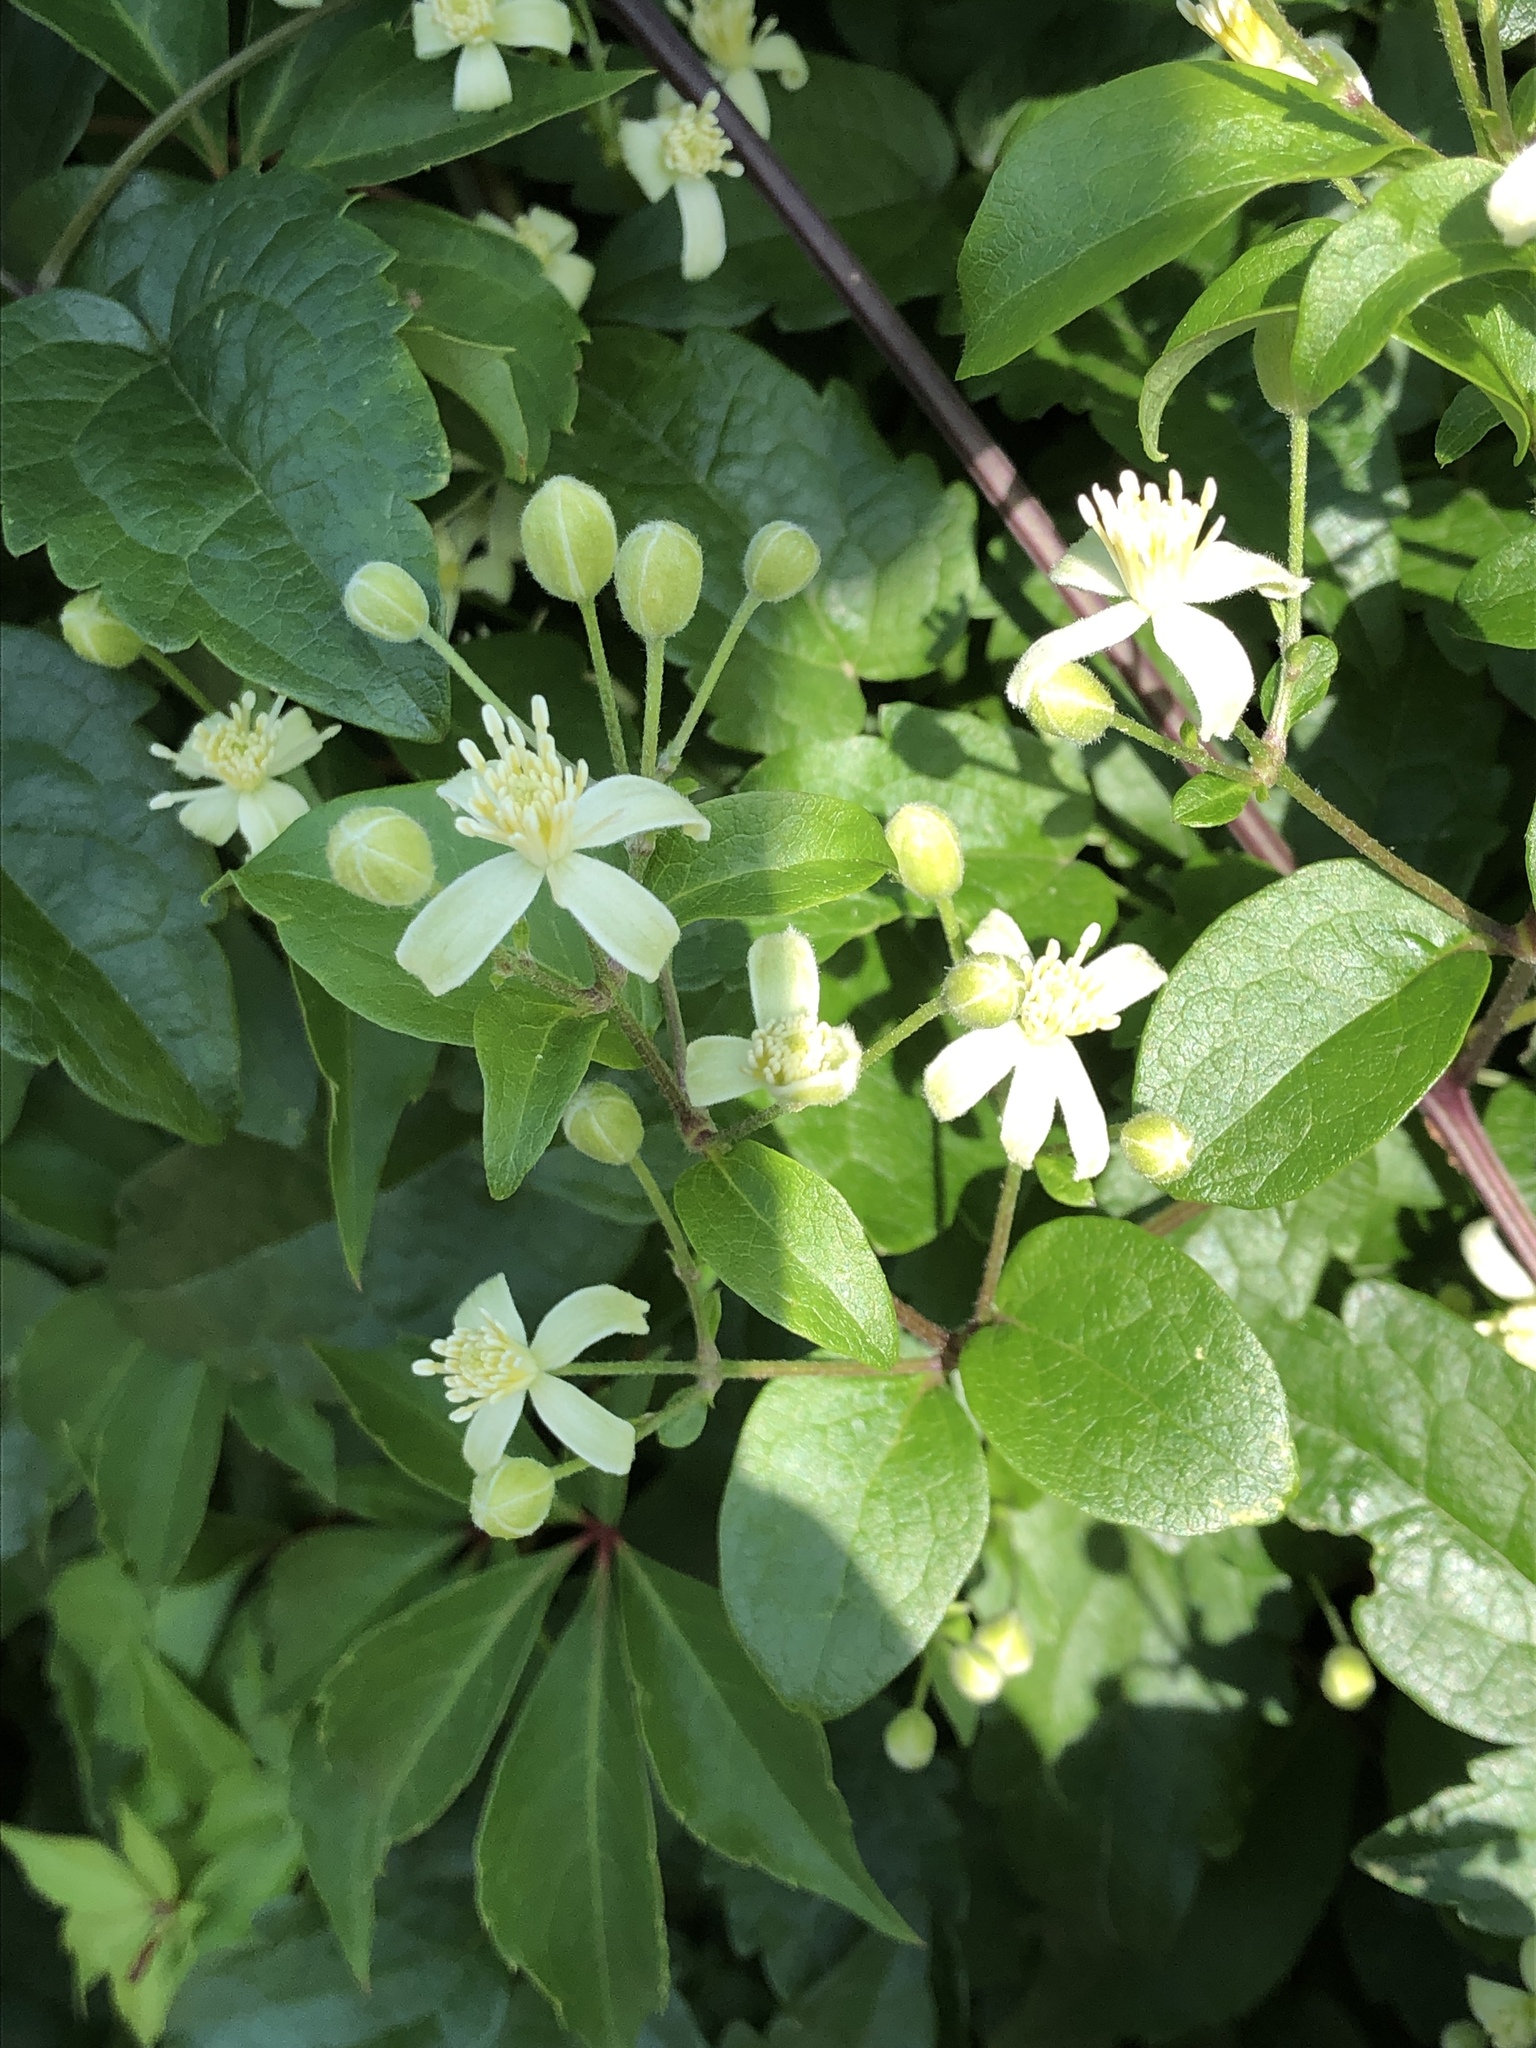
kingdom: Plantae
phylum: Tracheophyta
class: Magnoliopsida
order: Ranunculales
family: Ranunculaceae
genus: Clematis
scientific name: Clematis vitalba
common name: Evergreen clematis
